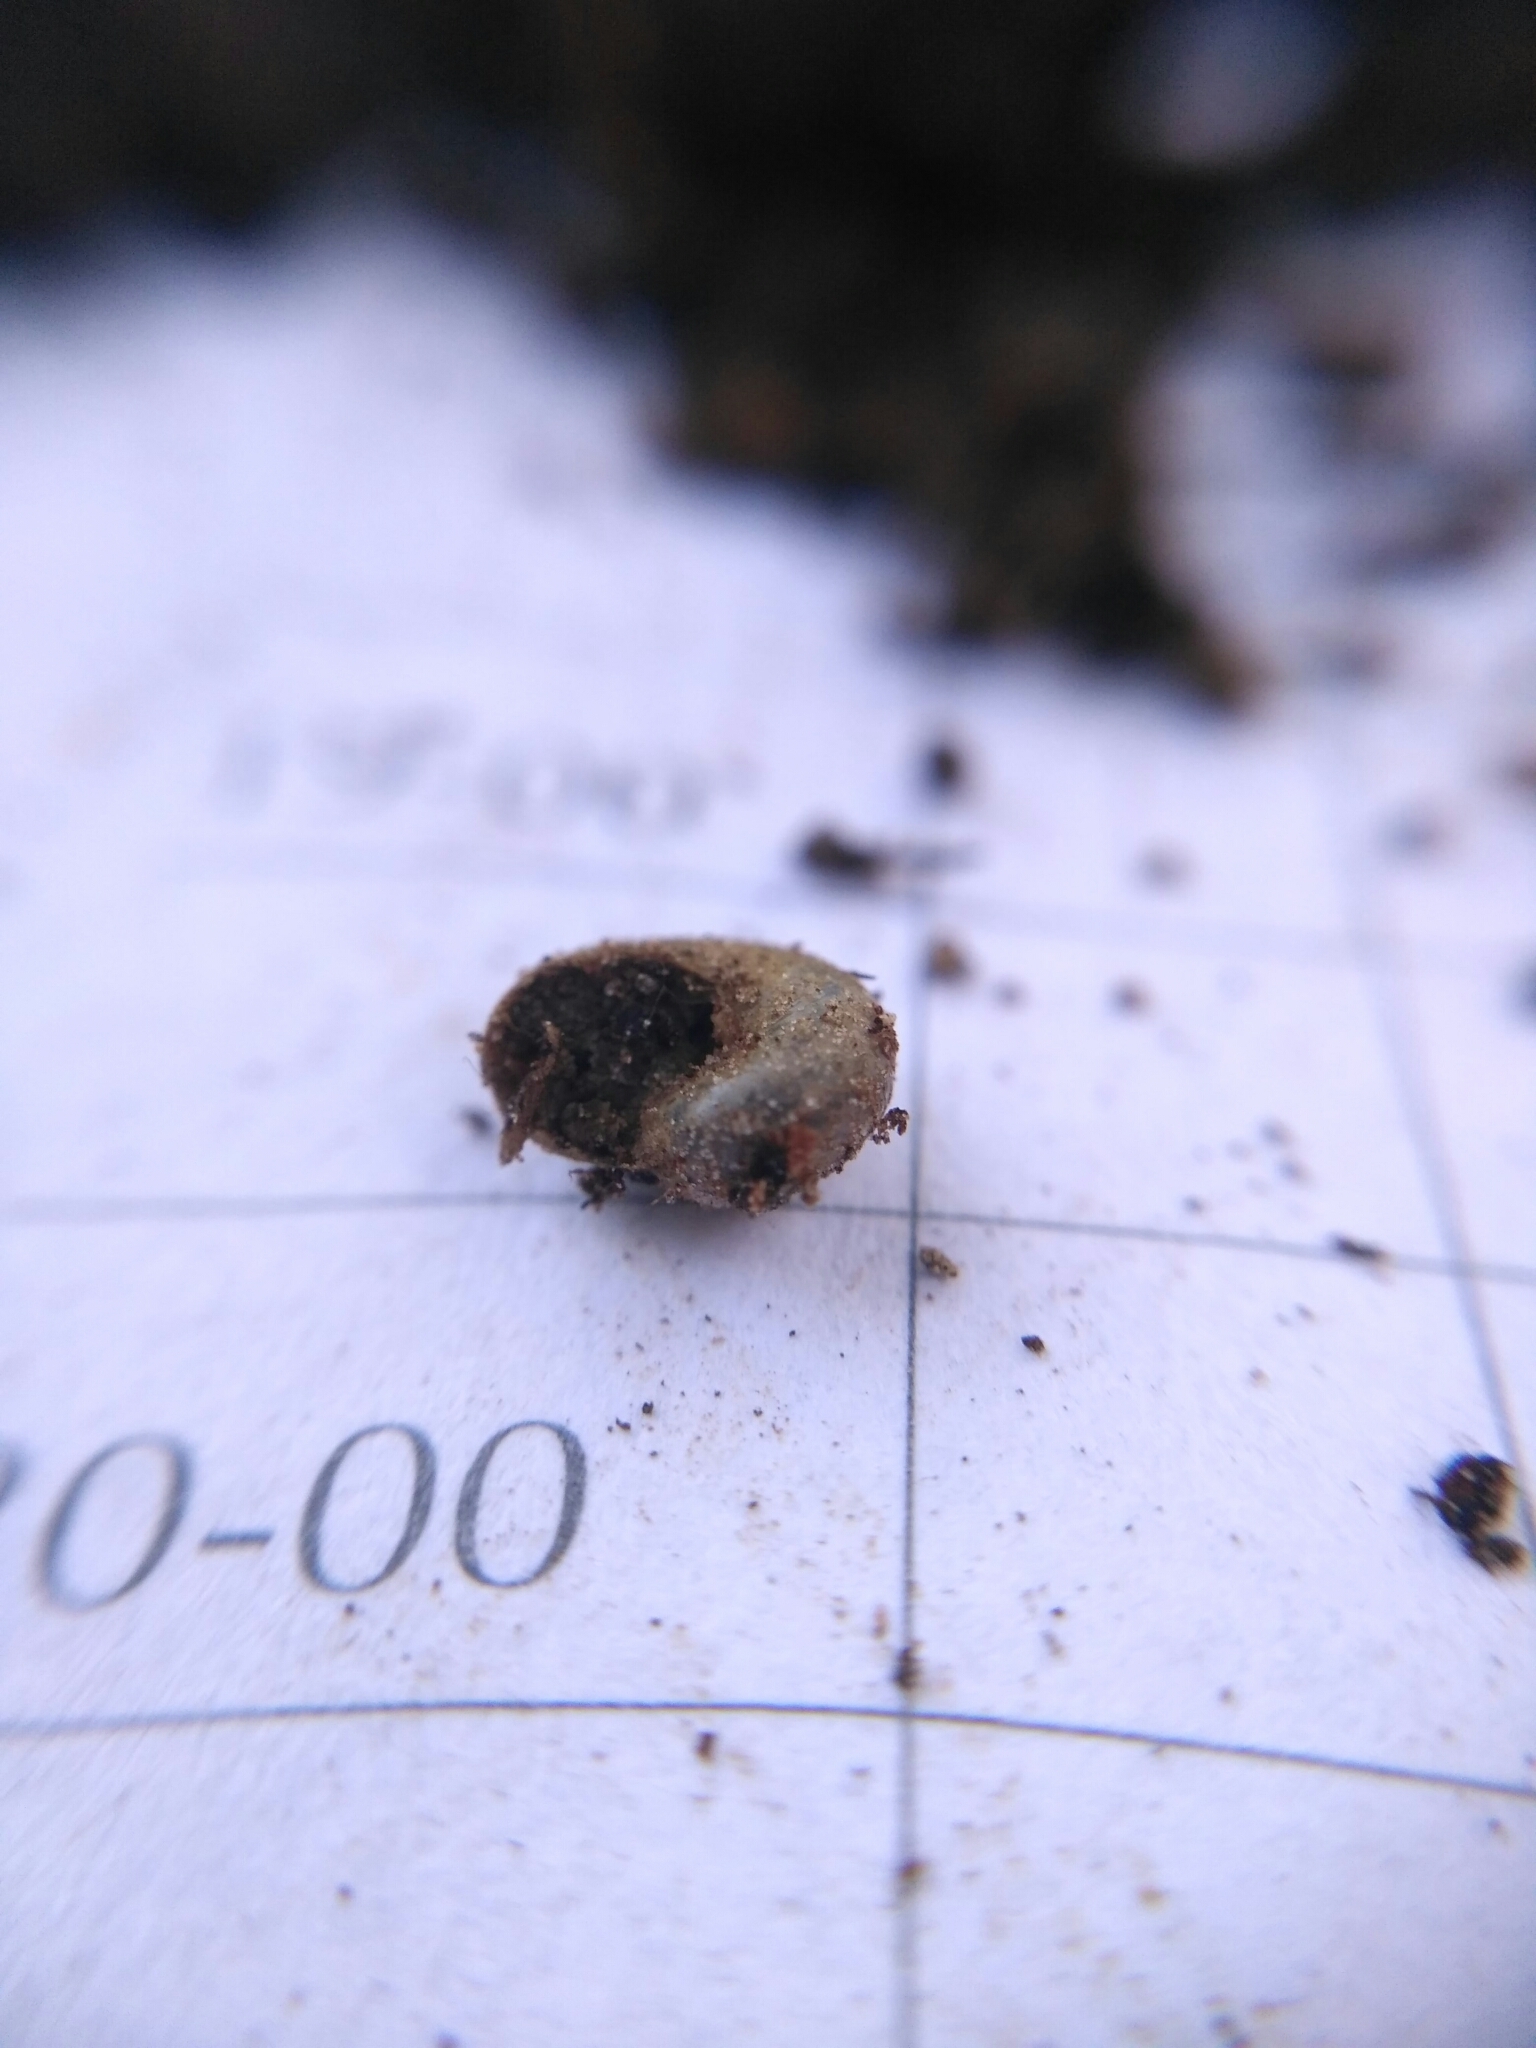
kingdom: Animalia
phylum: Mollusca
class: Gastropoda
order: Stylommatophora
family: Vitrinidae
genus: Vitrina
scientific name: Vitrina pellucida
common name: Pellucid glass snail
